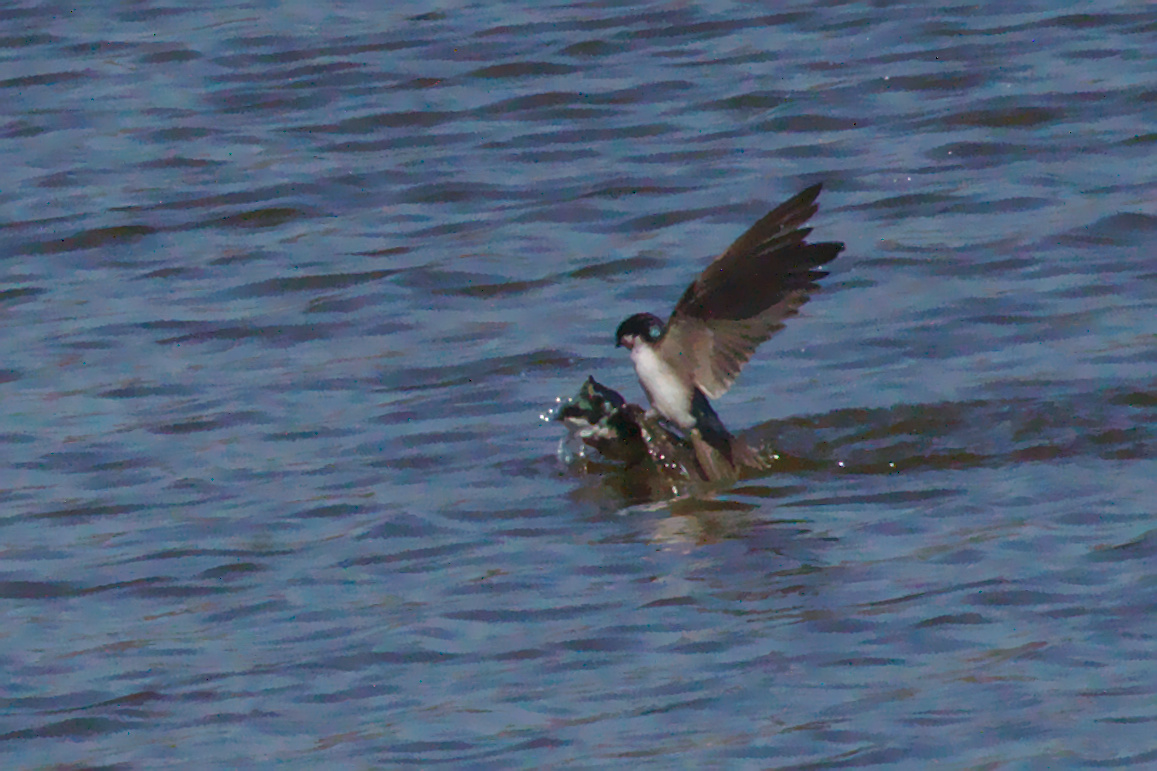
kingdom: Animalia
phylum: Chordata
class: Aves
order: Passeriformes
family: Hirundinidae
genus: Tachycineta
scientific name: Tachycineta bicolor
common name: Tree swallow
